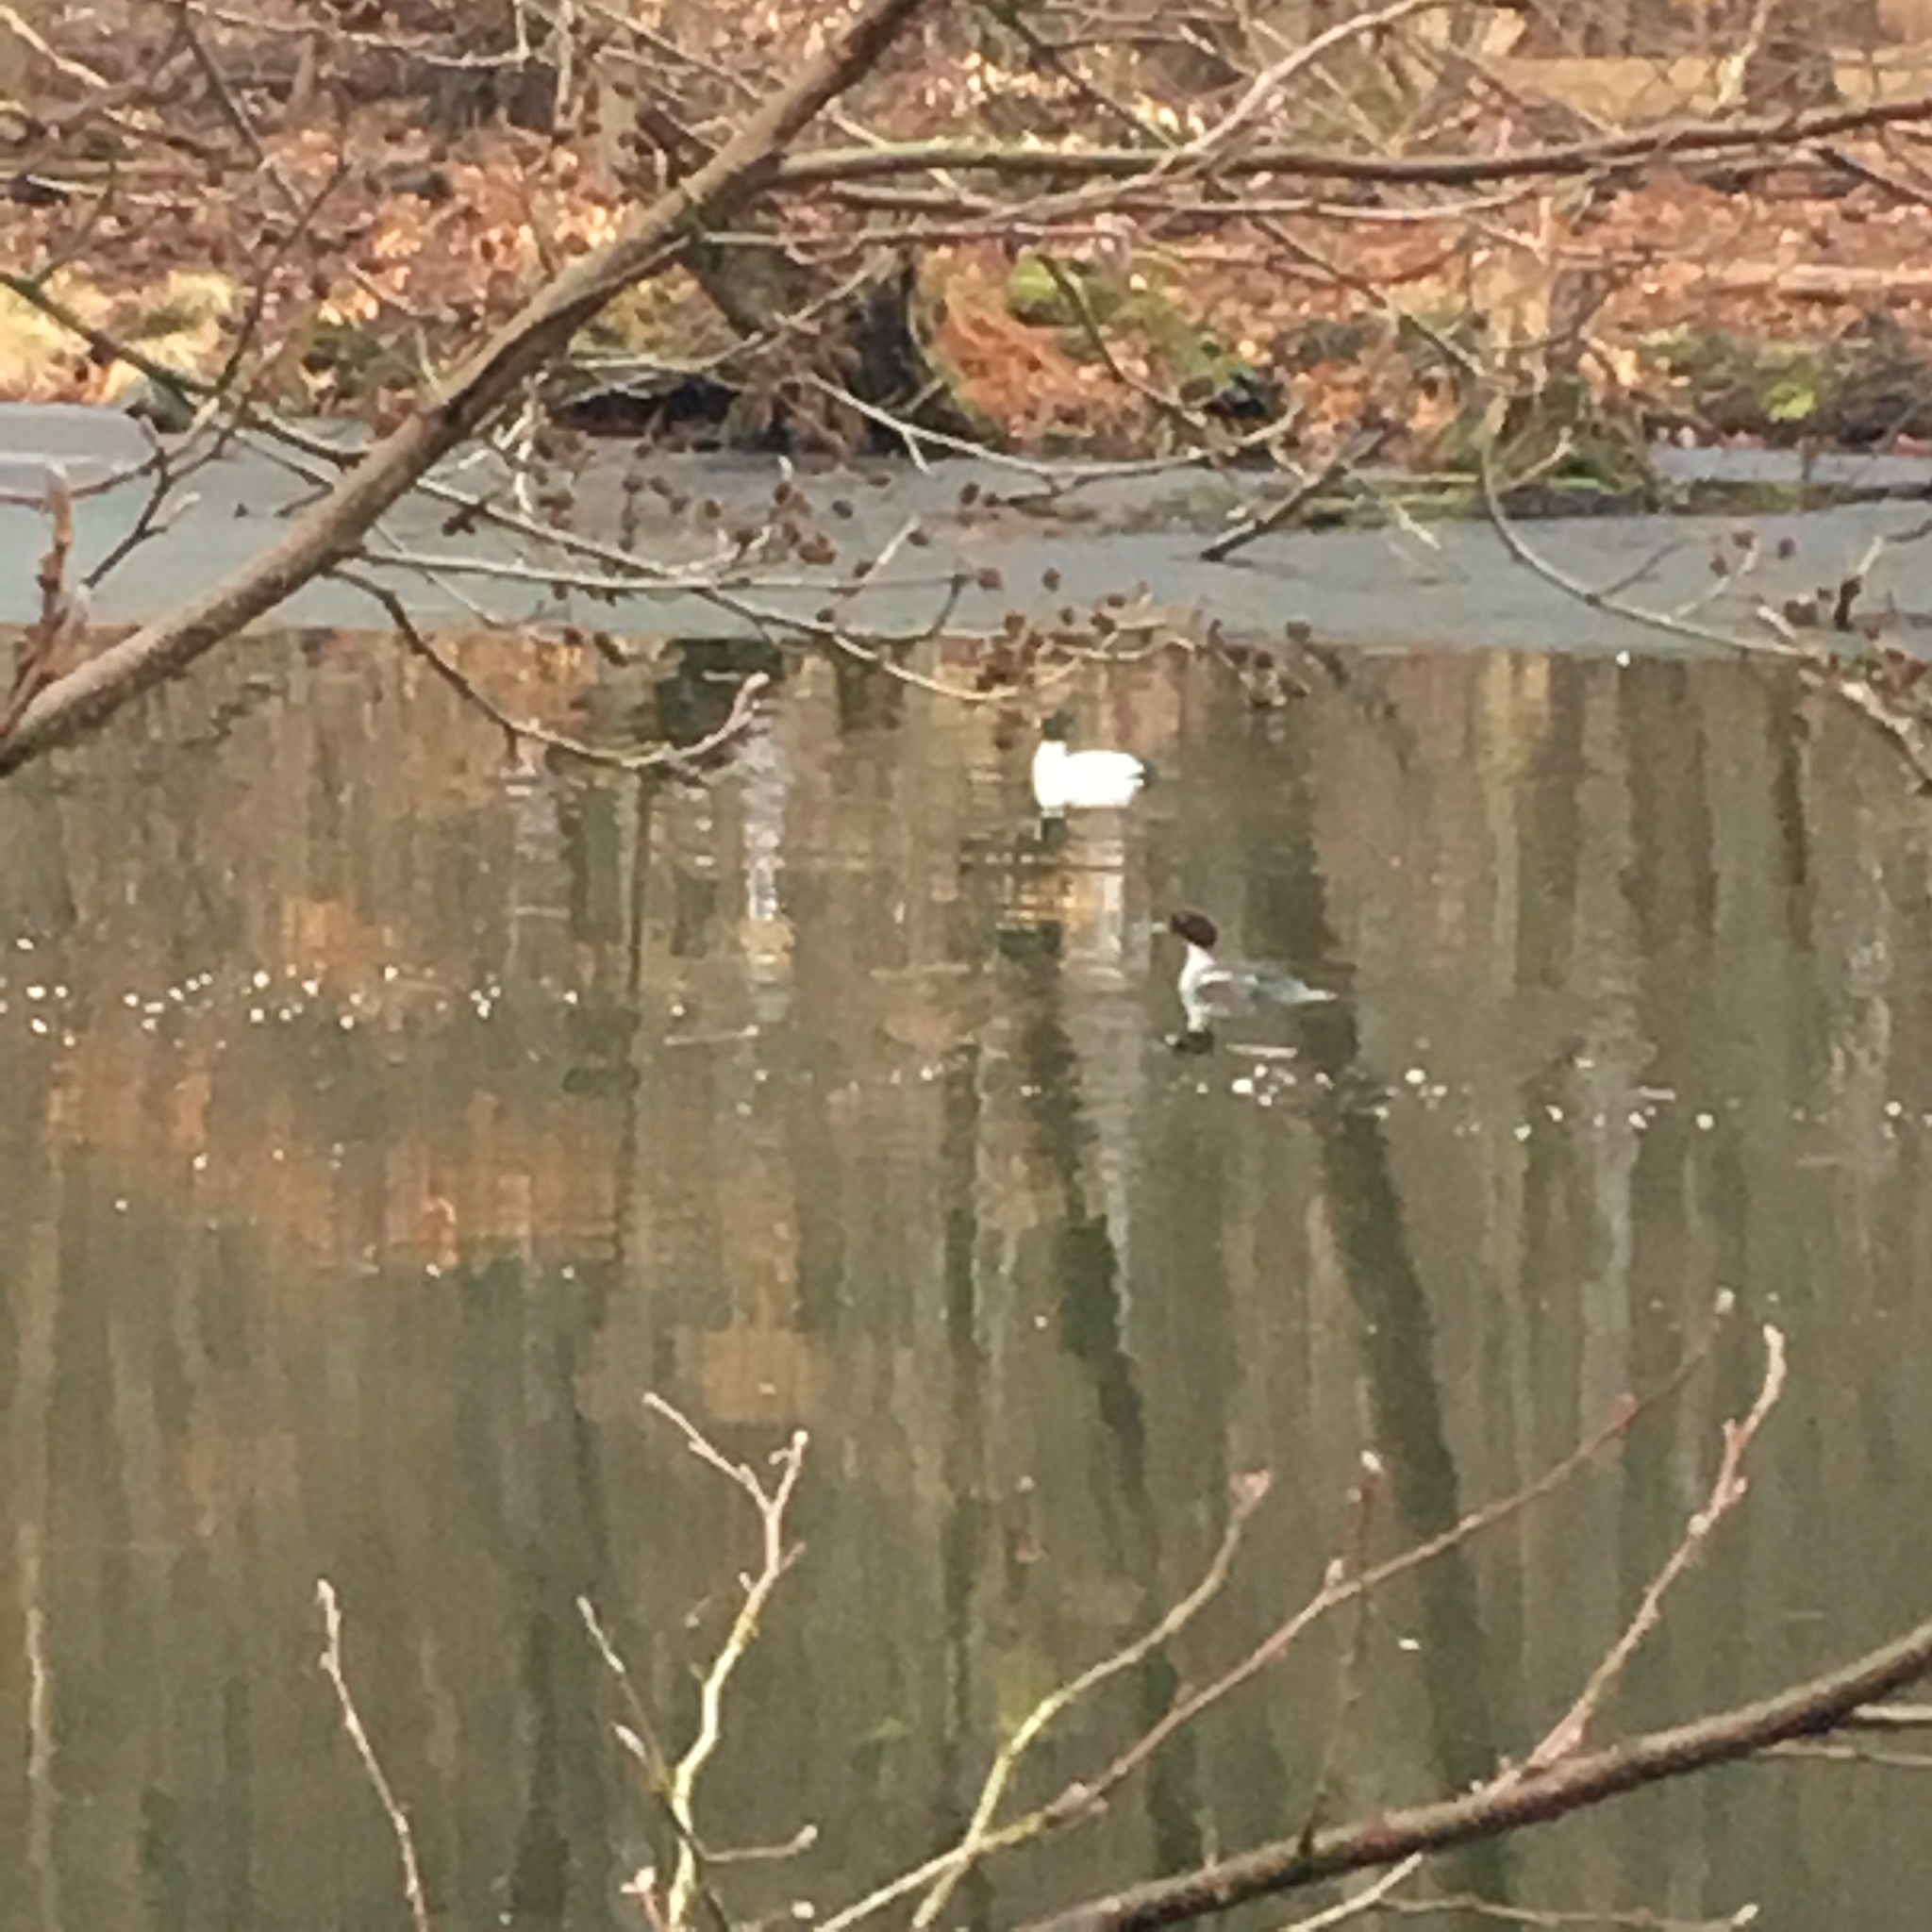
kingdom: Animalia
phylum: Chordata
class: Aves
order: Anseriformes
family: Anatidae
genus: Bucephala
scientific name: Bucephala clangula
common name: Common goldeneye
